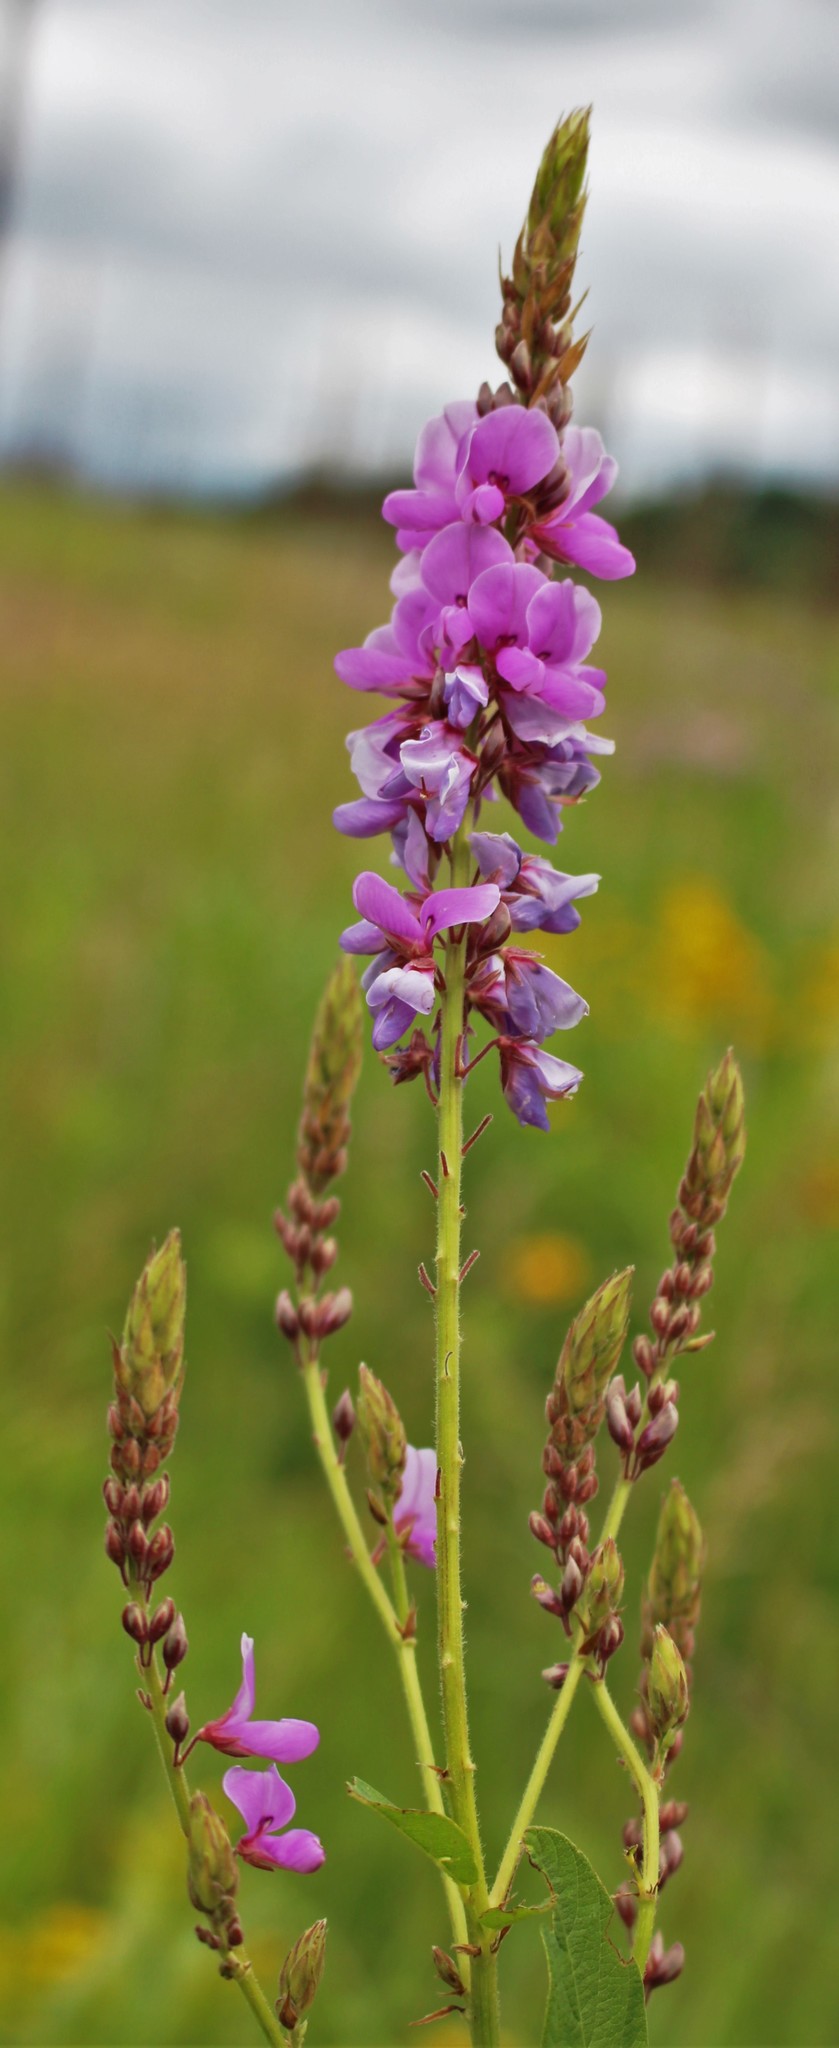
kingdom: Plantae
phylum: Tracheophyta
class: Magnoliopsida
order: Fabales
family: Fabaceae
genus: Desmodium
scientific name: Desmodium canadense
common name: Canada tick-trefoil
